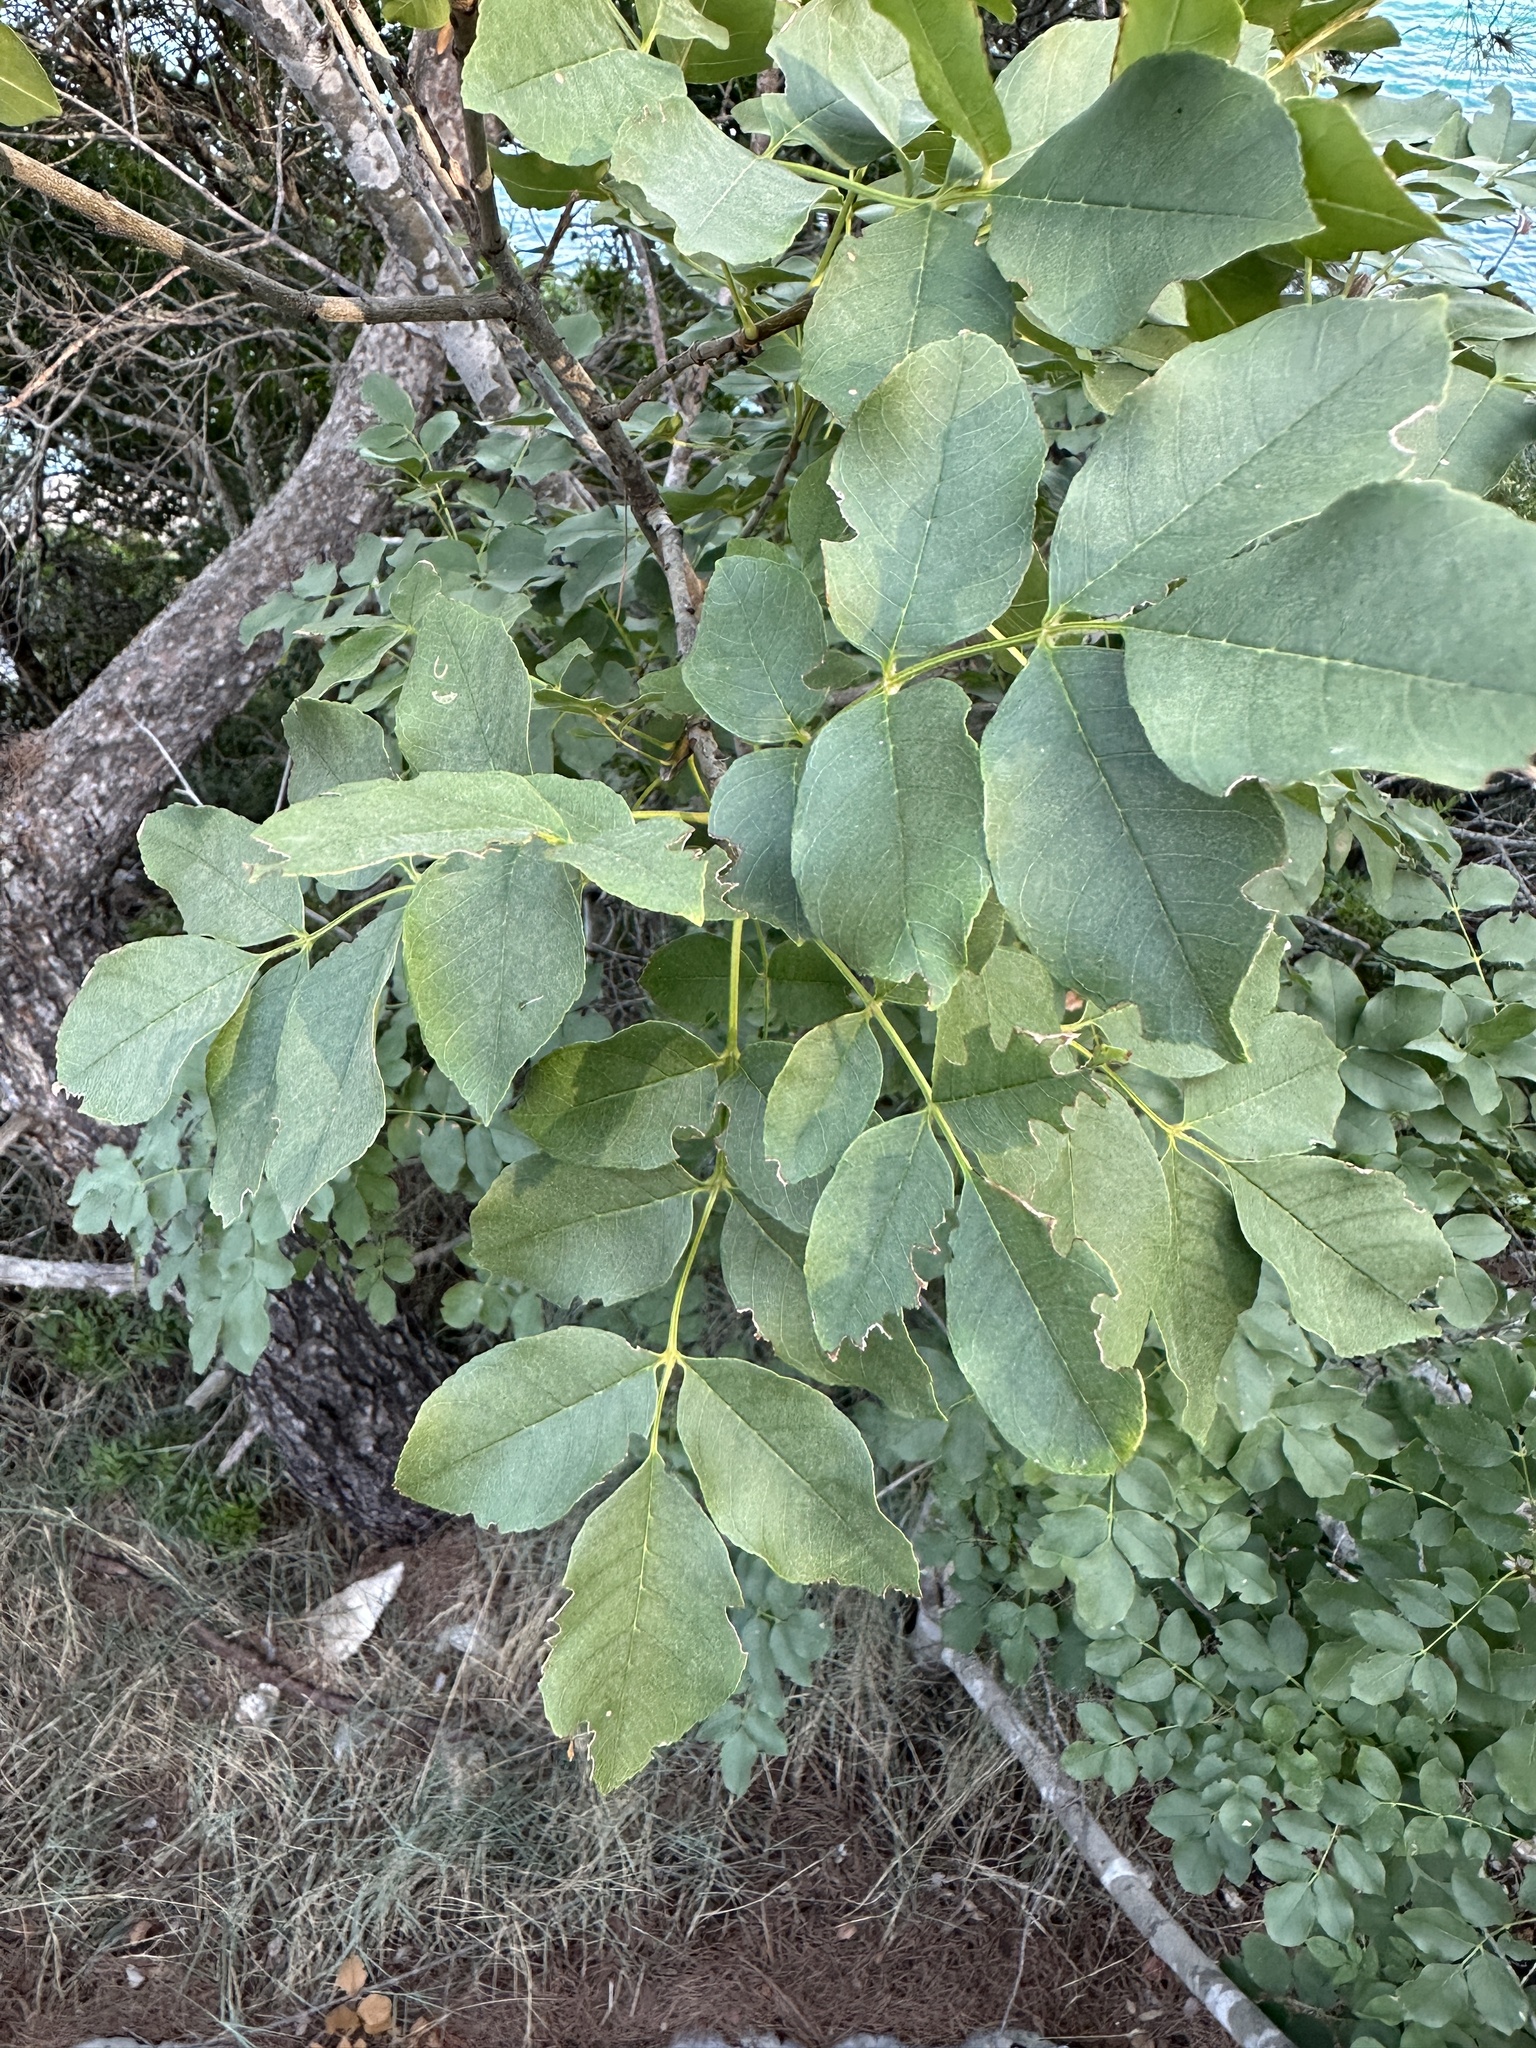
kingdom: Plantae
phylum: Tracheophyta
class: Magnoliopsida
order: Lamiales
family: Oleaceae
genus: Fraxinus
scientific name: Fraxinus ornus
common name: Manna ash
